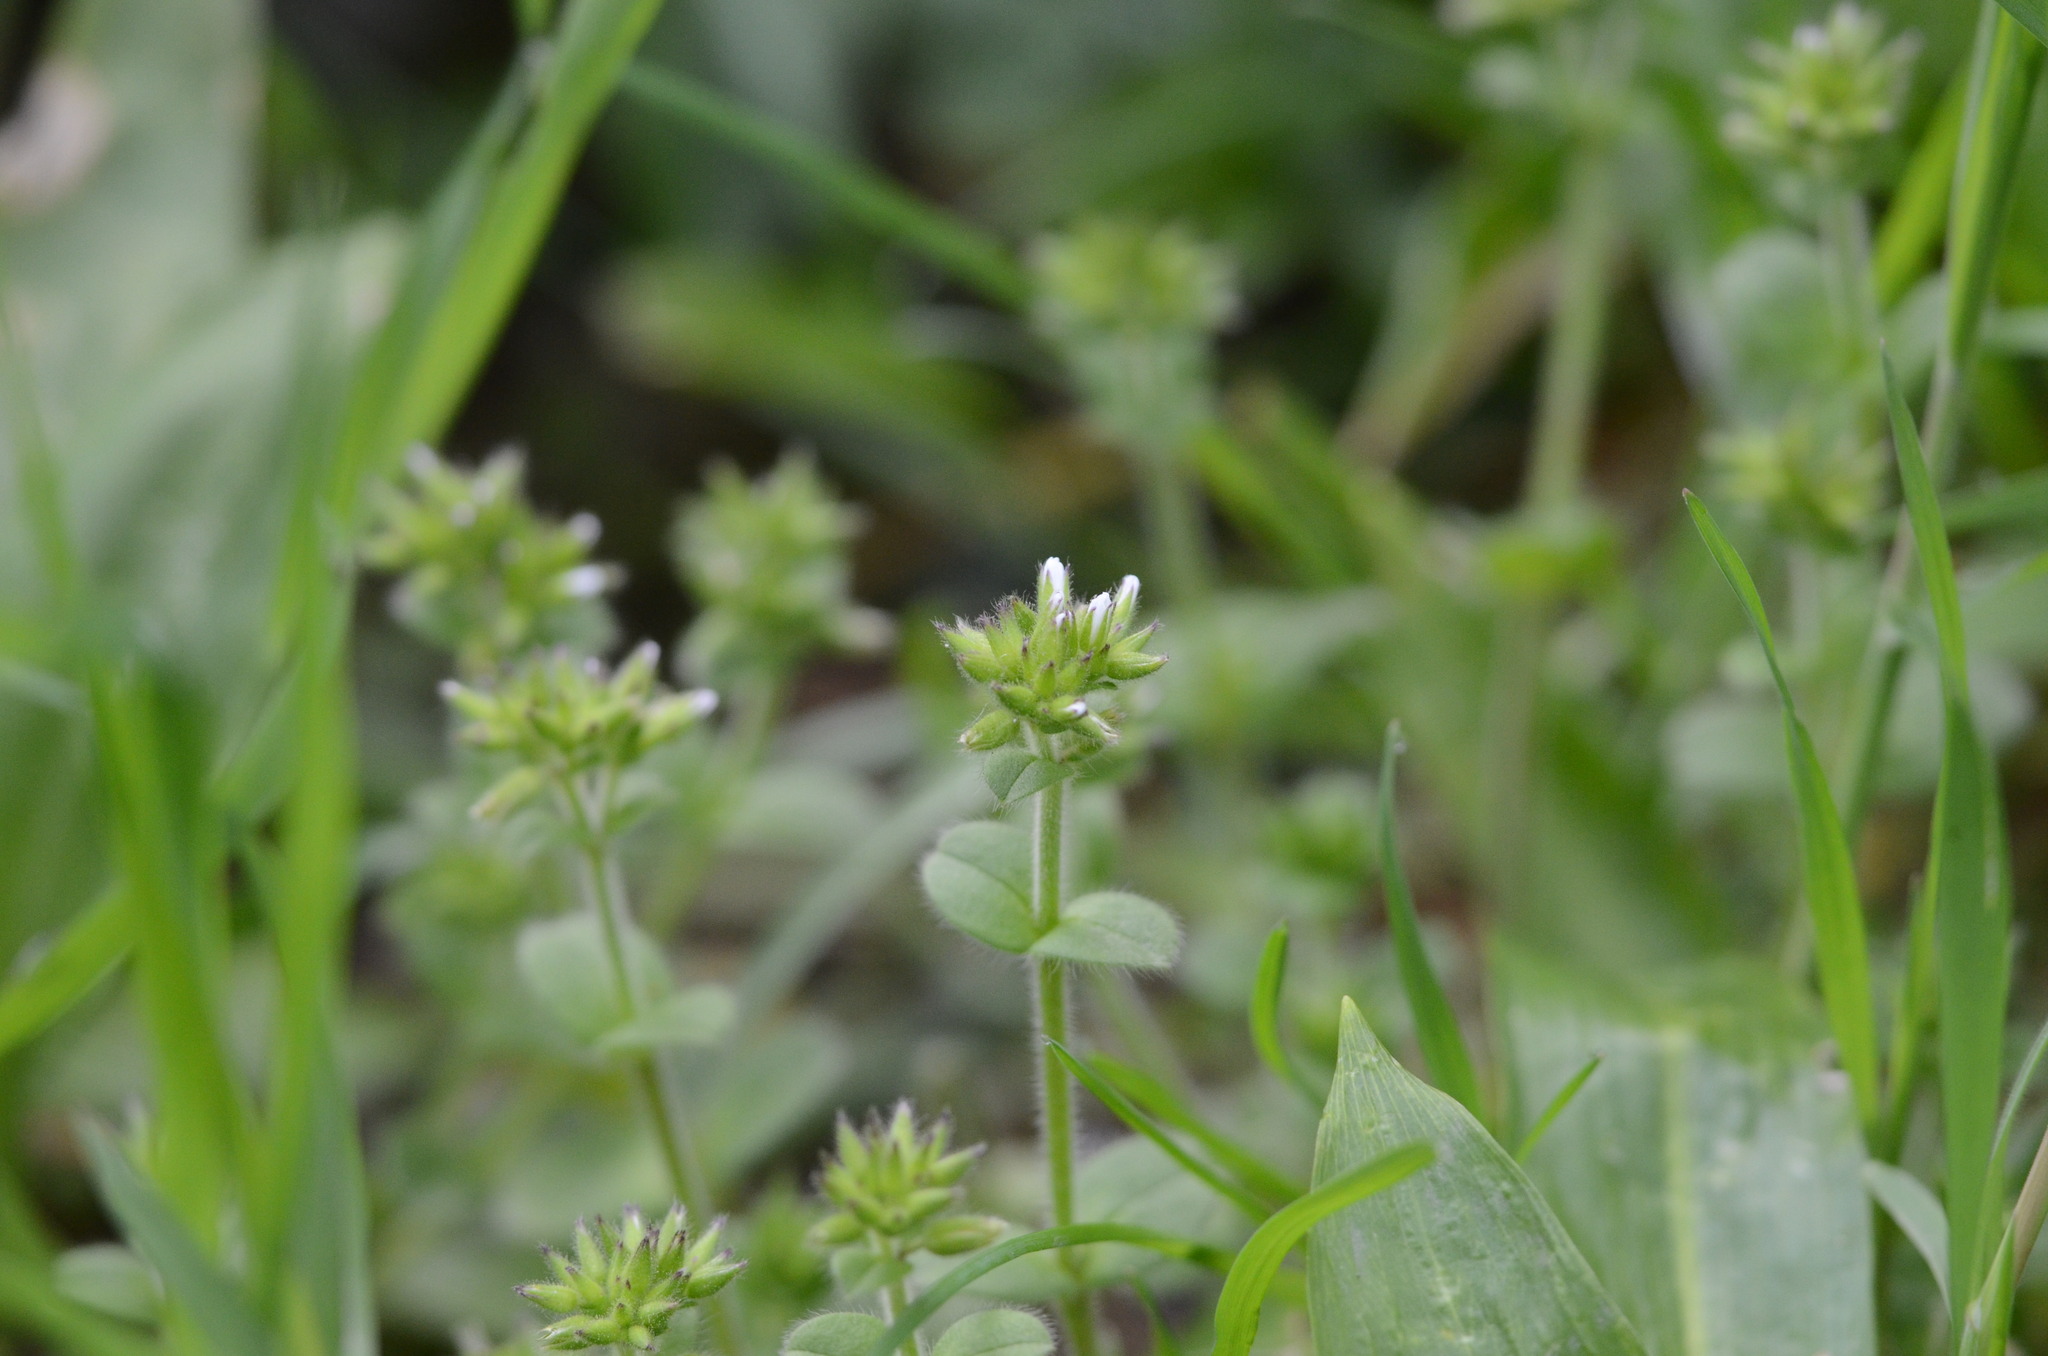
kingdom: Plantae
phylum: Tracheophyta
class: Magnoliopsida
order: Caryophyllales
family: Caryophyllaceae
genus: Cerastium
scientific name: Cerastium glomeratum
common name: Sticky chickweed
